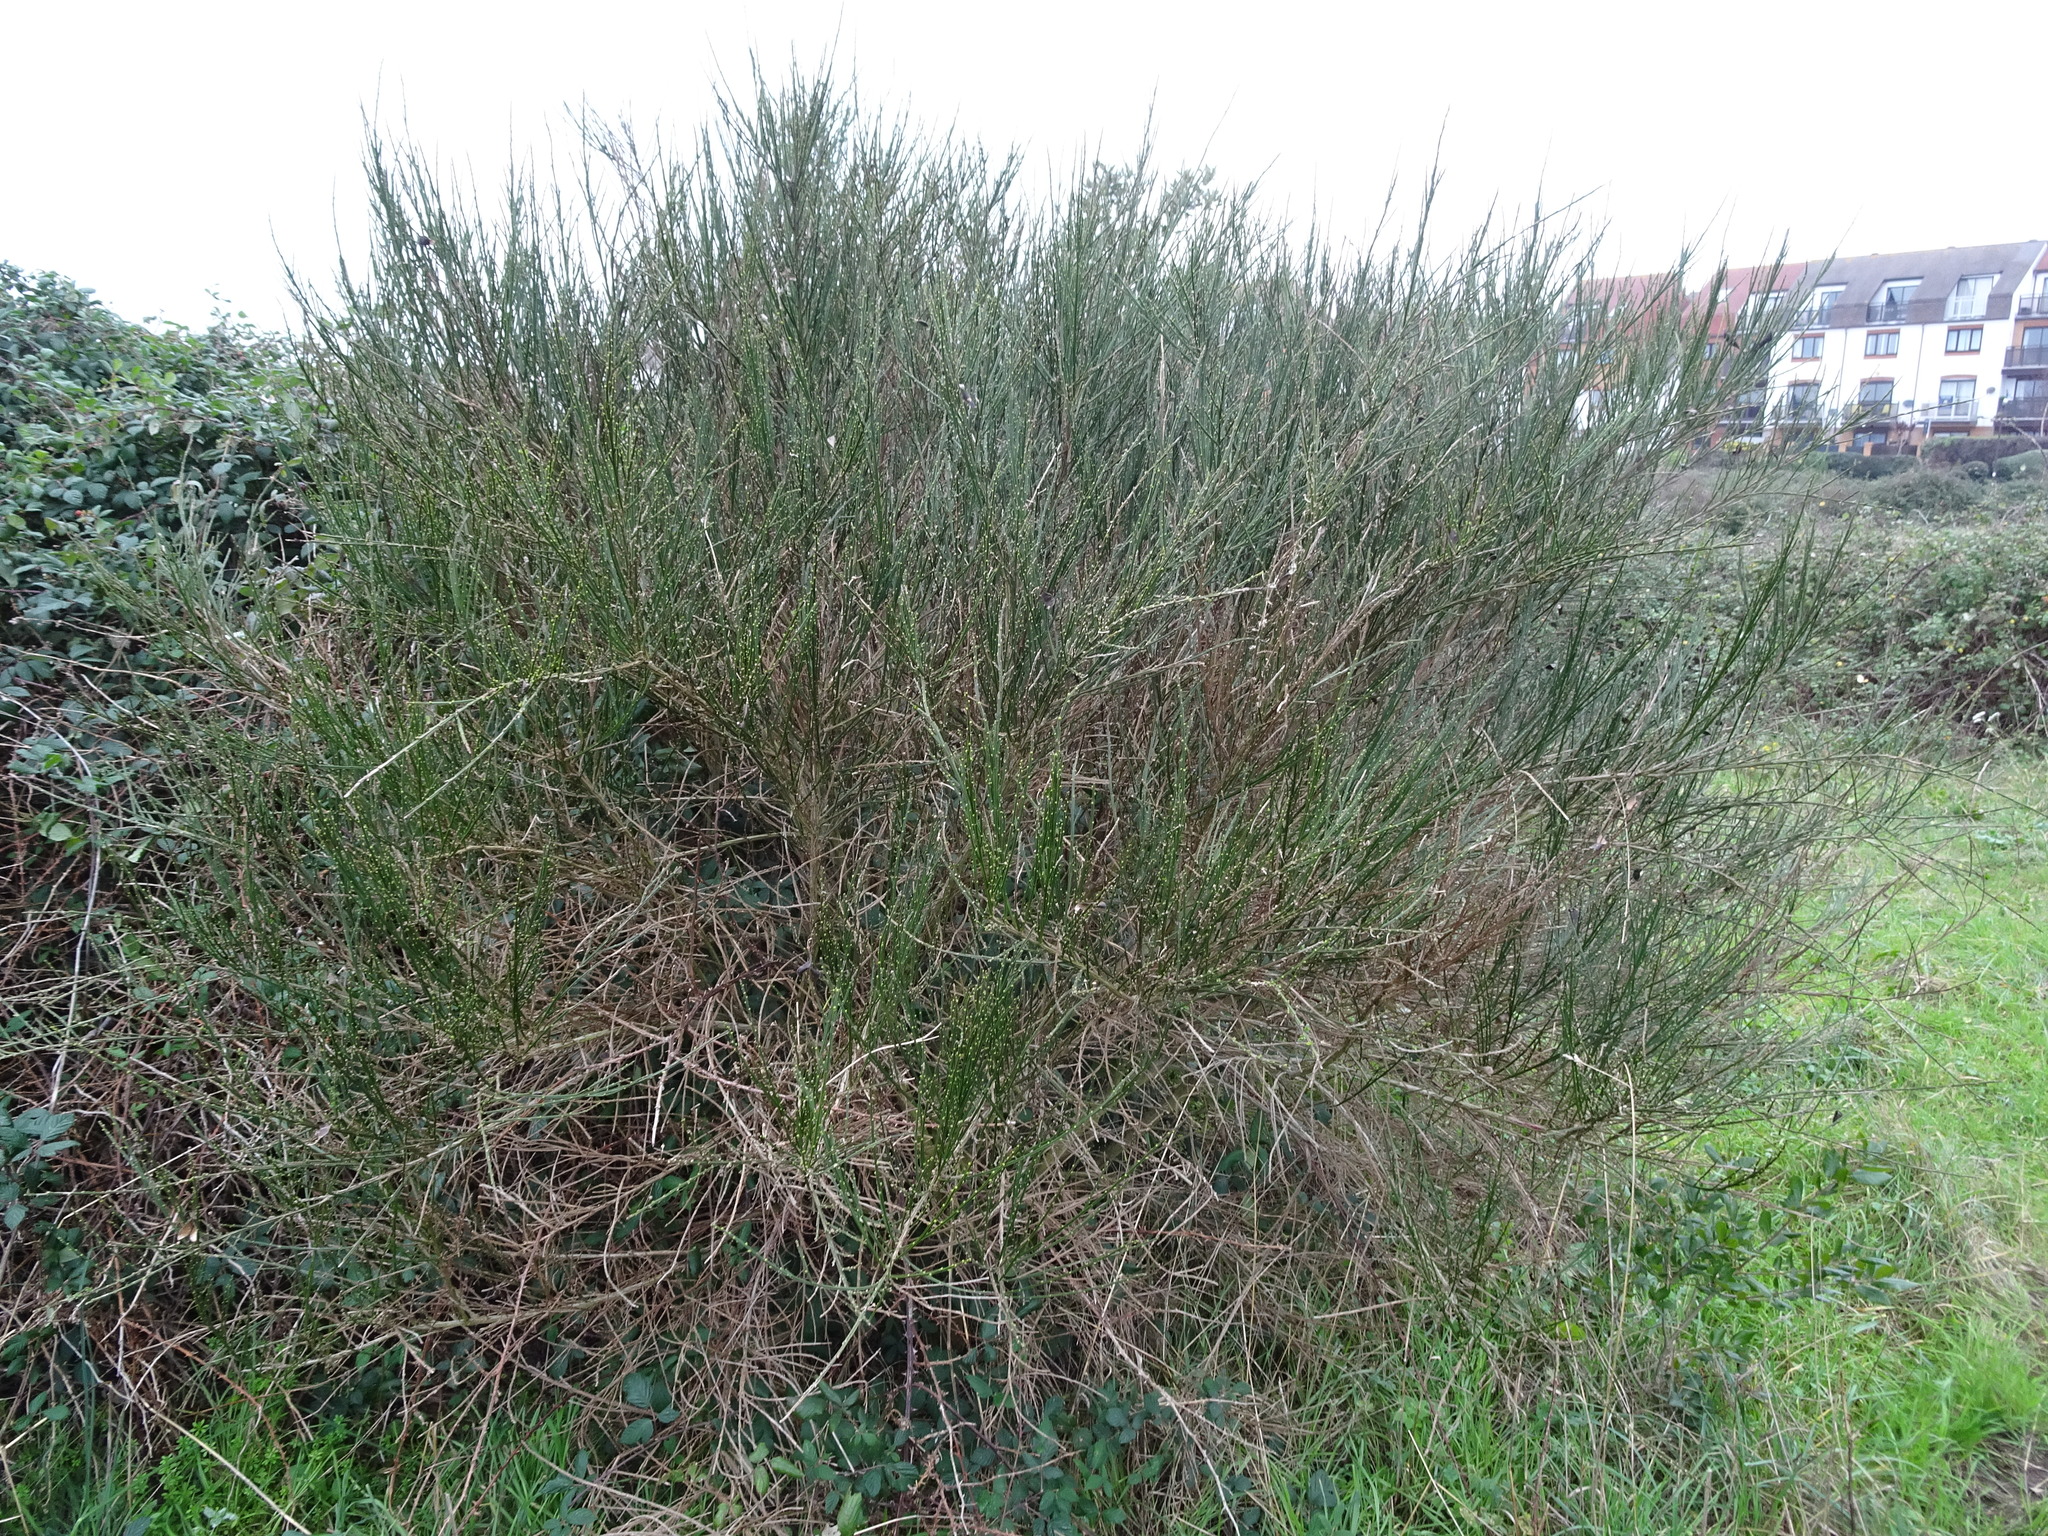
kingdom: Plantae
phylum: Tracheophyta
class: Magnoliopsida
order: Fabales
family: Fabaceae
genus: Cytisus
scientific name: Cytisus scoparius
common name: Scotch broom
